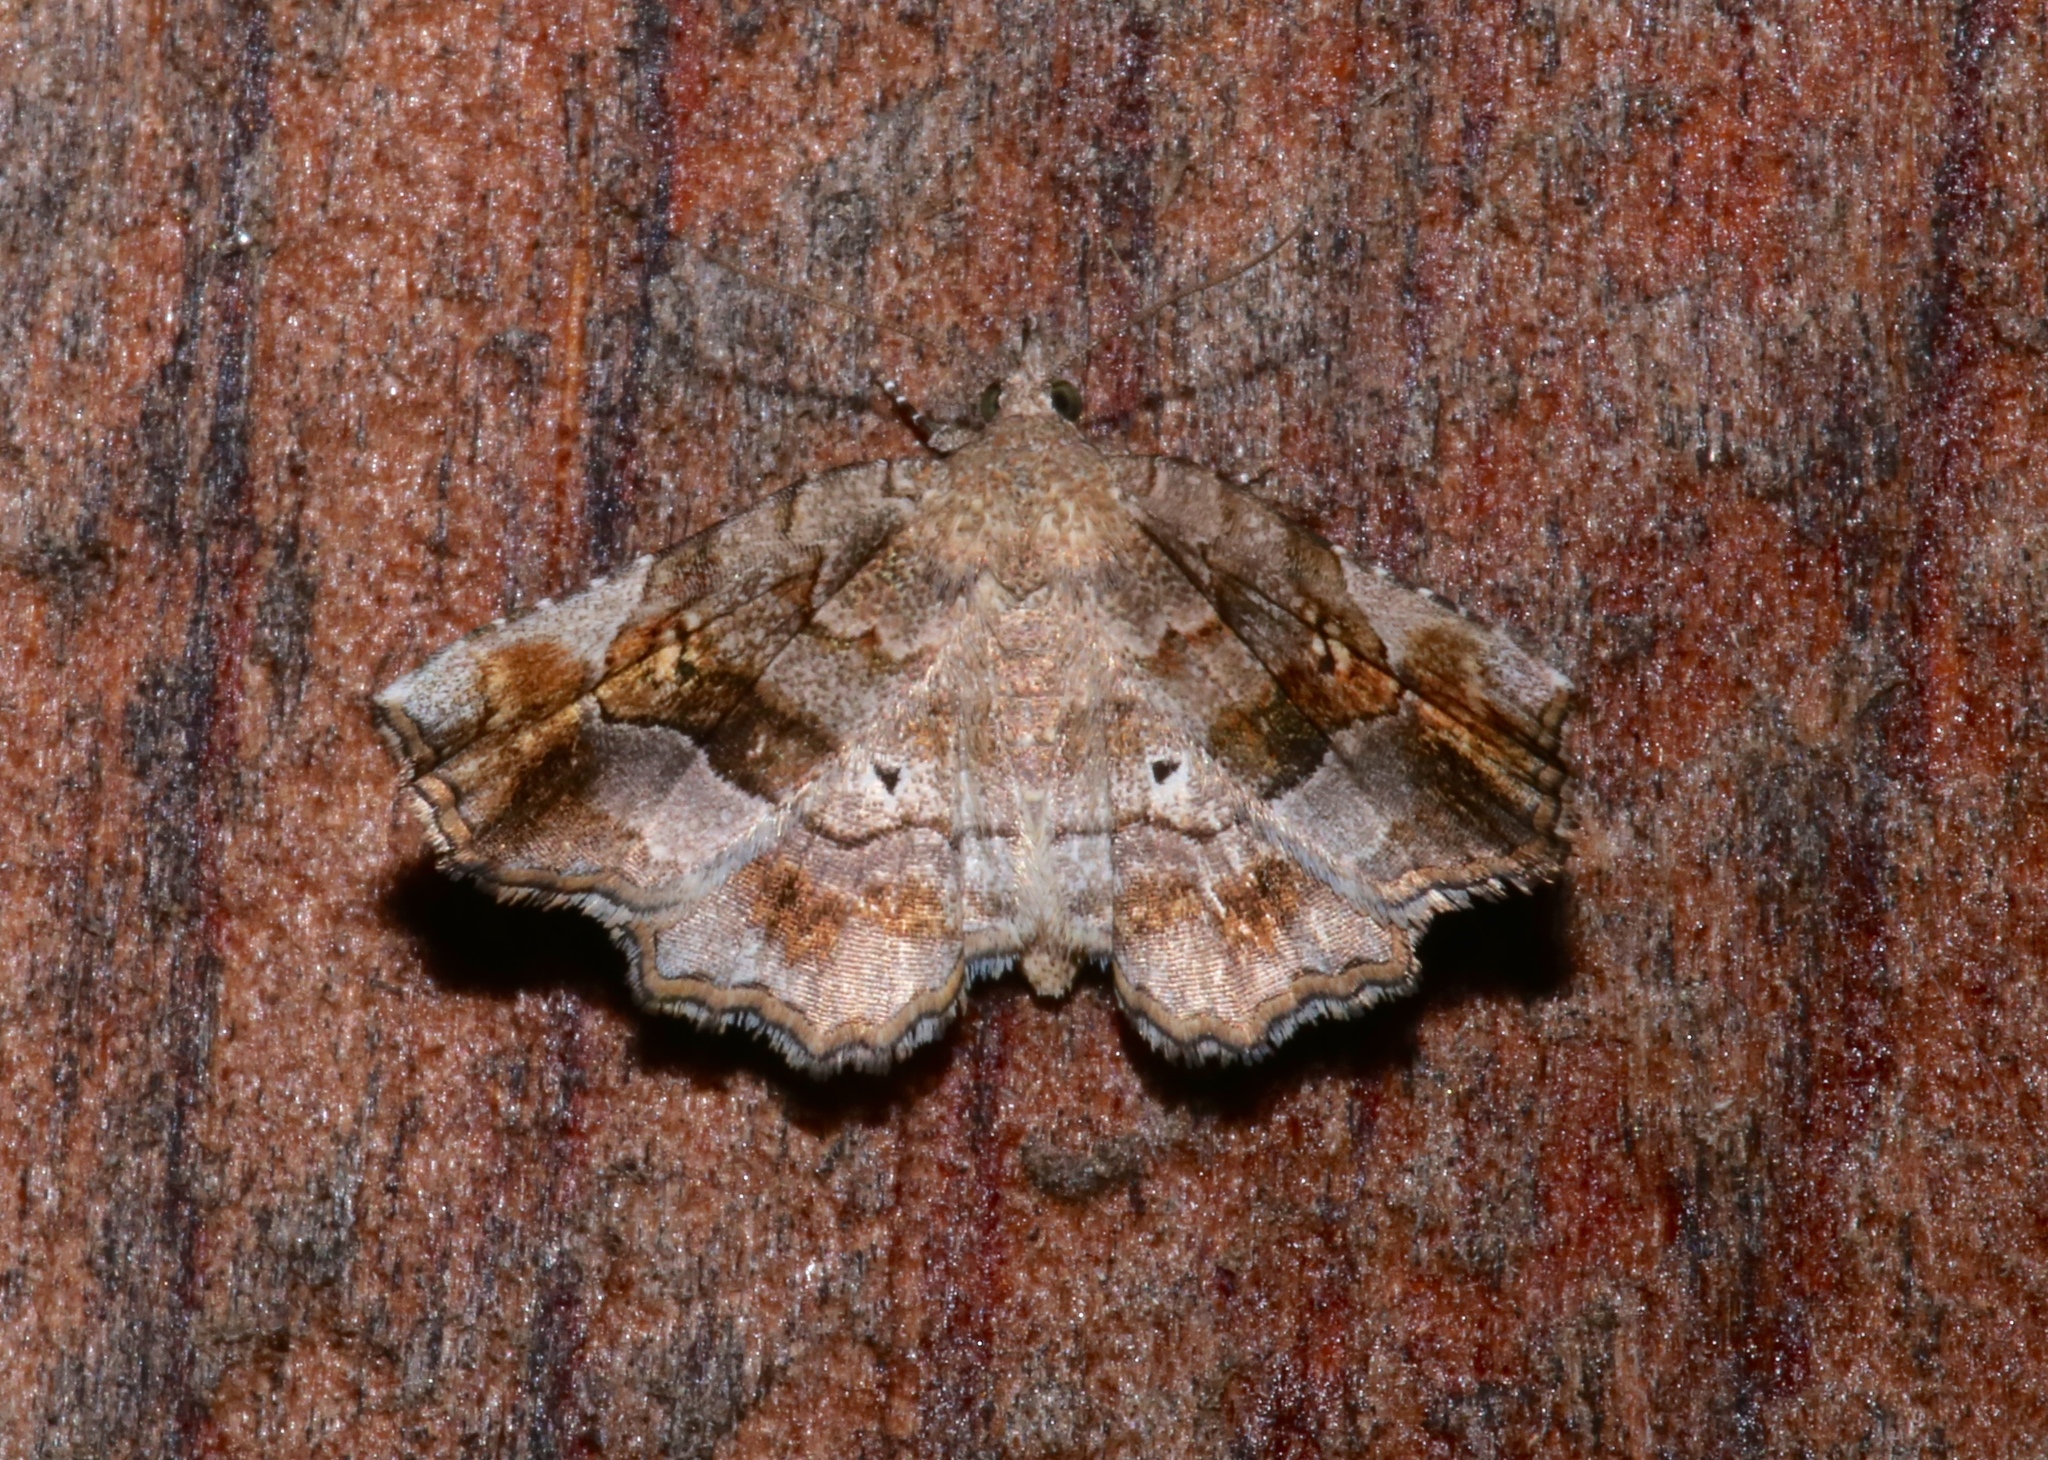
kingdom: Animalia
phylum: Arthropoda
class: Insecta
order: Lepidoptera
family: Erebidae
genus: Pangrapta
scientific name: Pangrapta decoralis
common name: Decorated owlet
